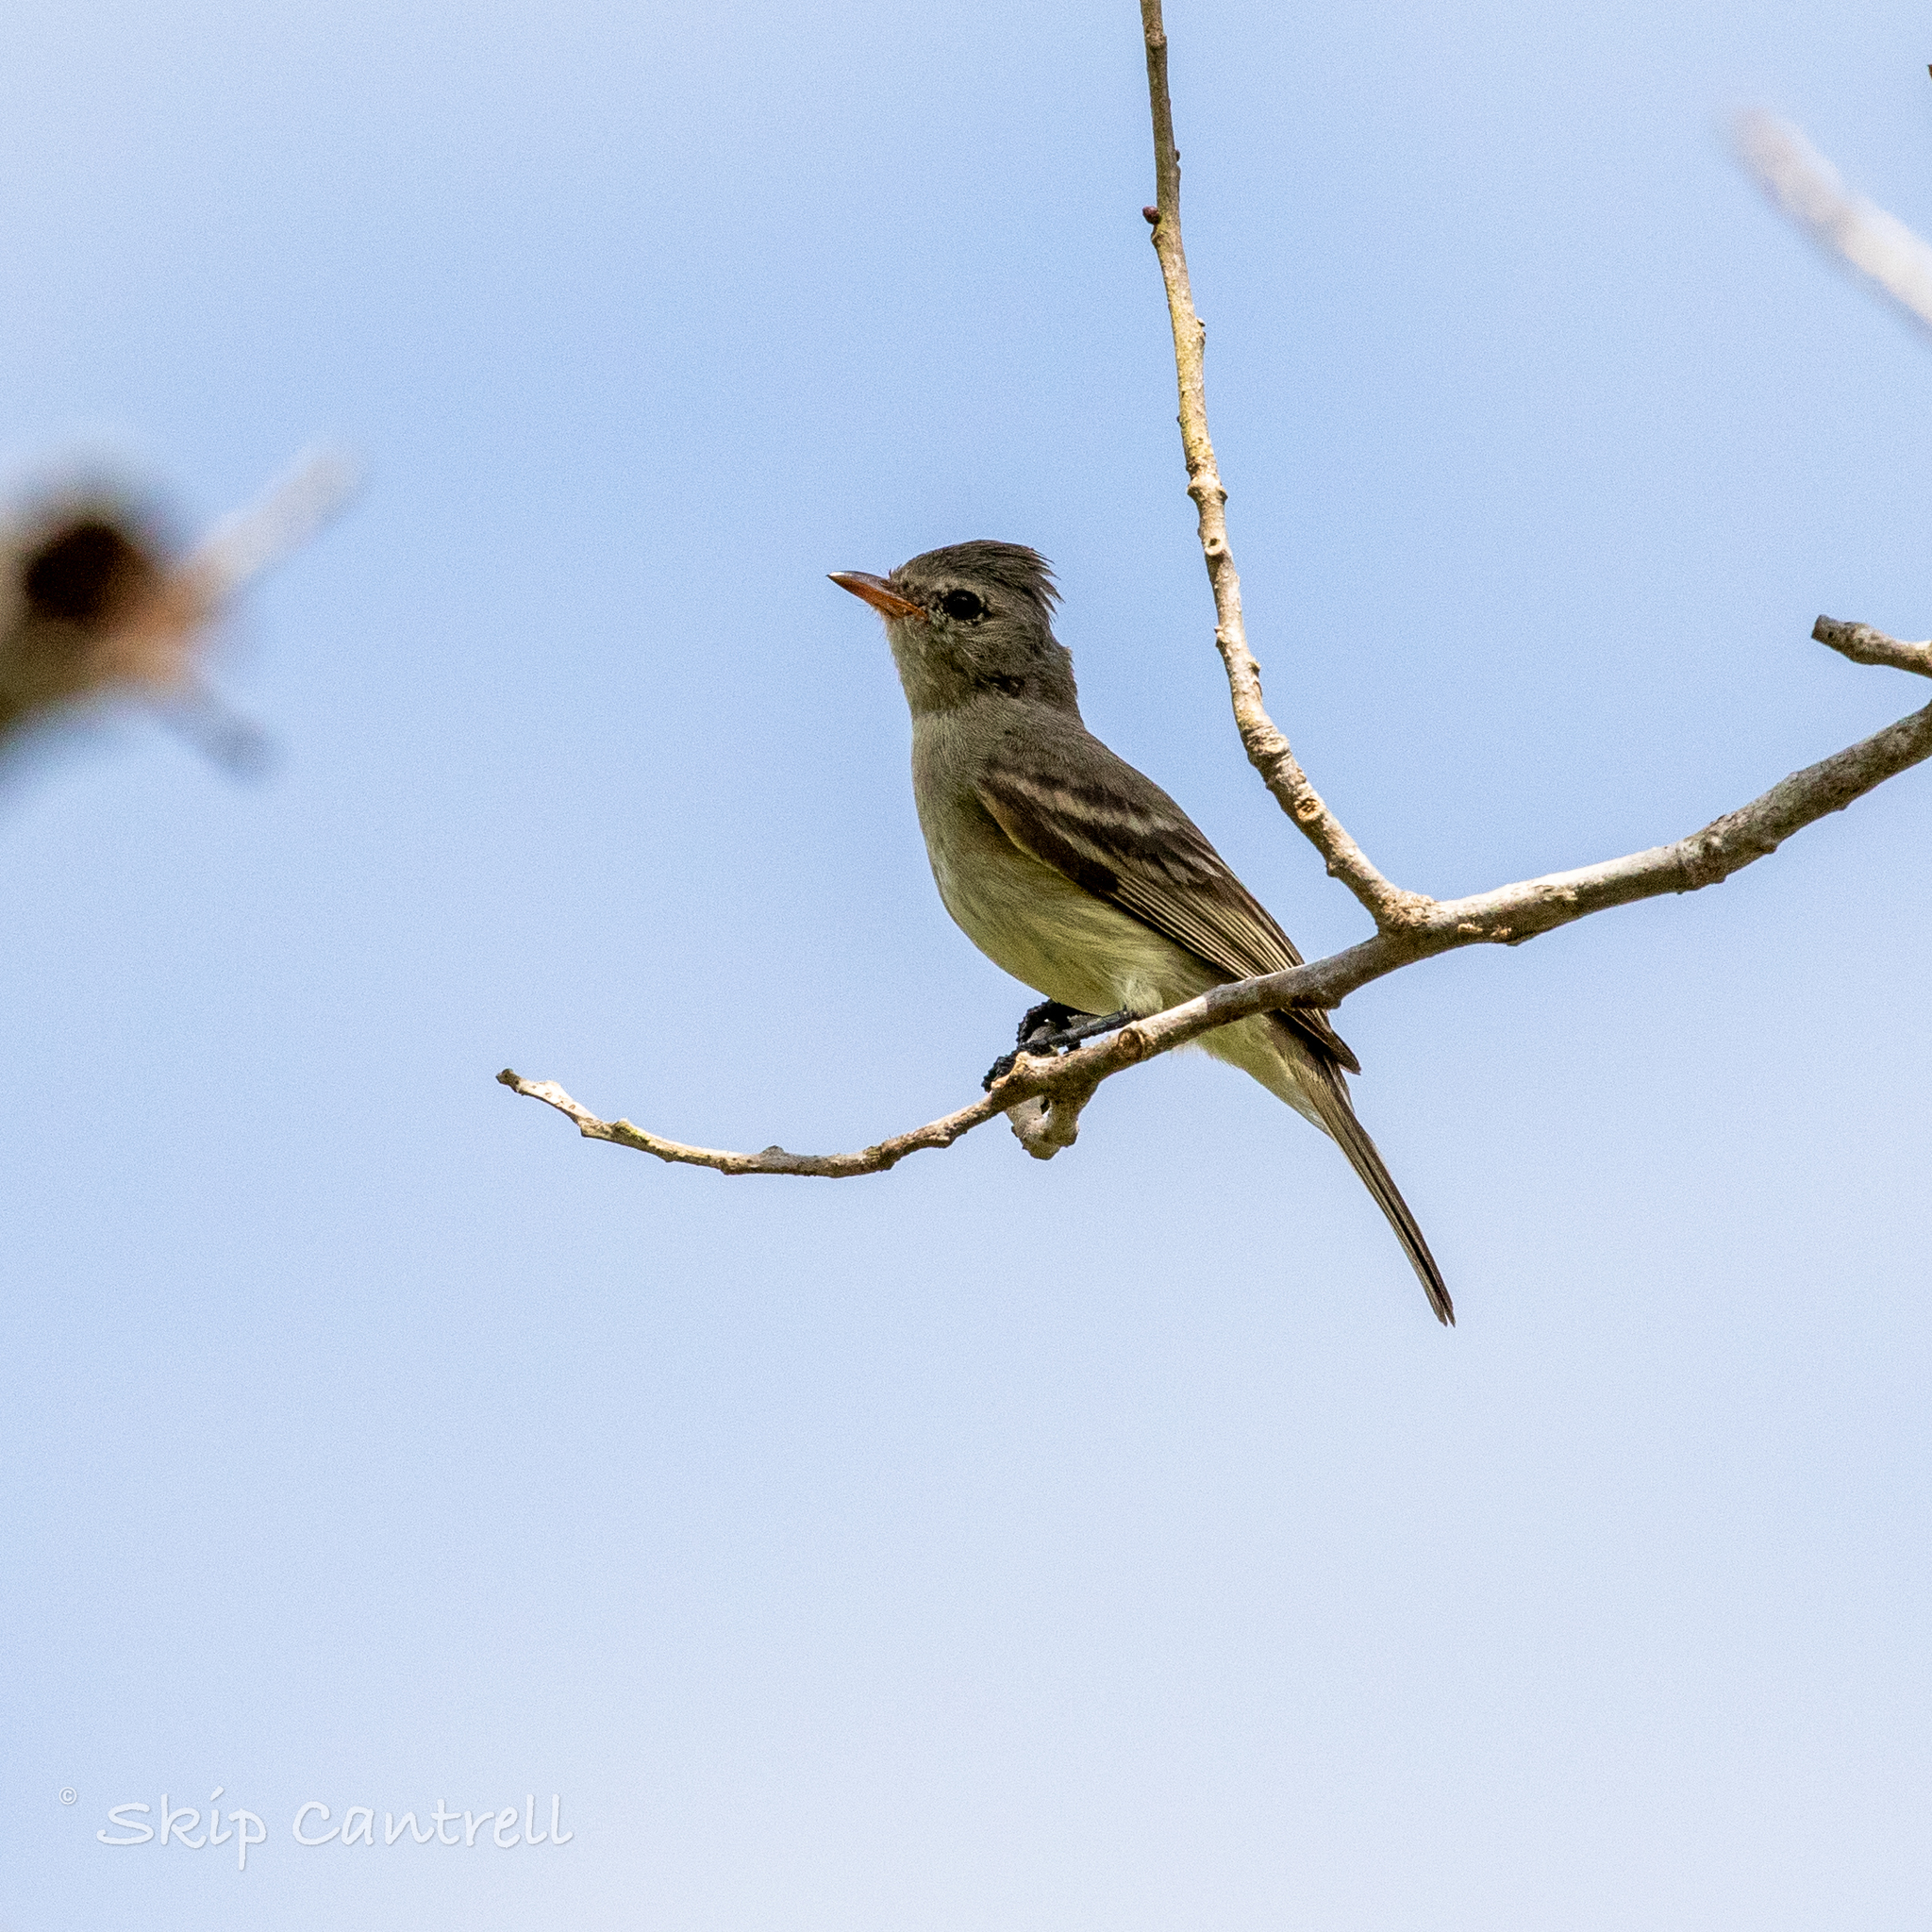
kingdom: Animalia
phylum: Chordata
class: Aves
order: Passeriformes
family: Tyrannidae
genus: Camptostoma
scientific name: Camptostoma imberbe
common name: Northern beardless-tyrannulet
